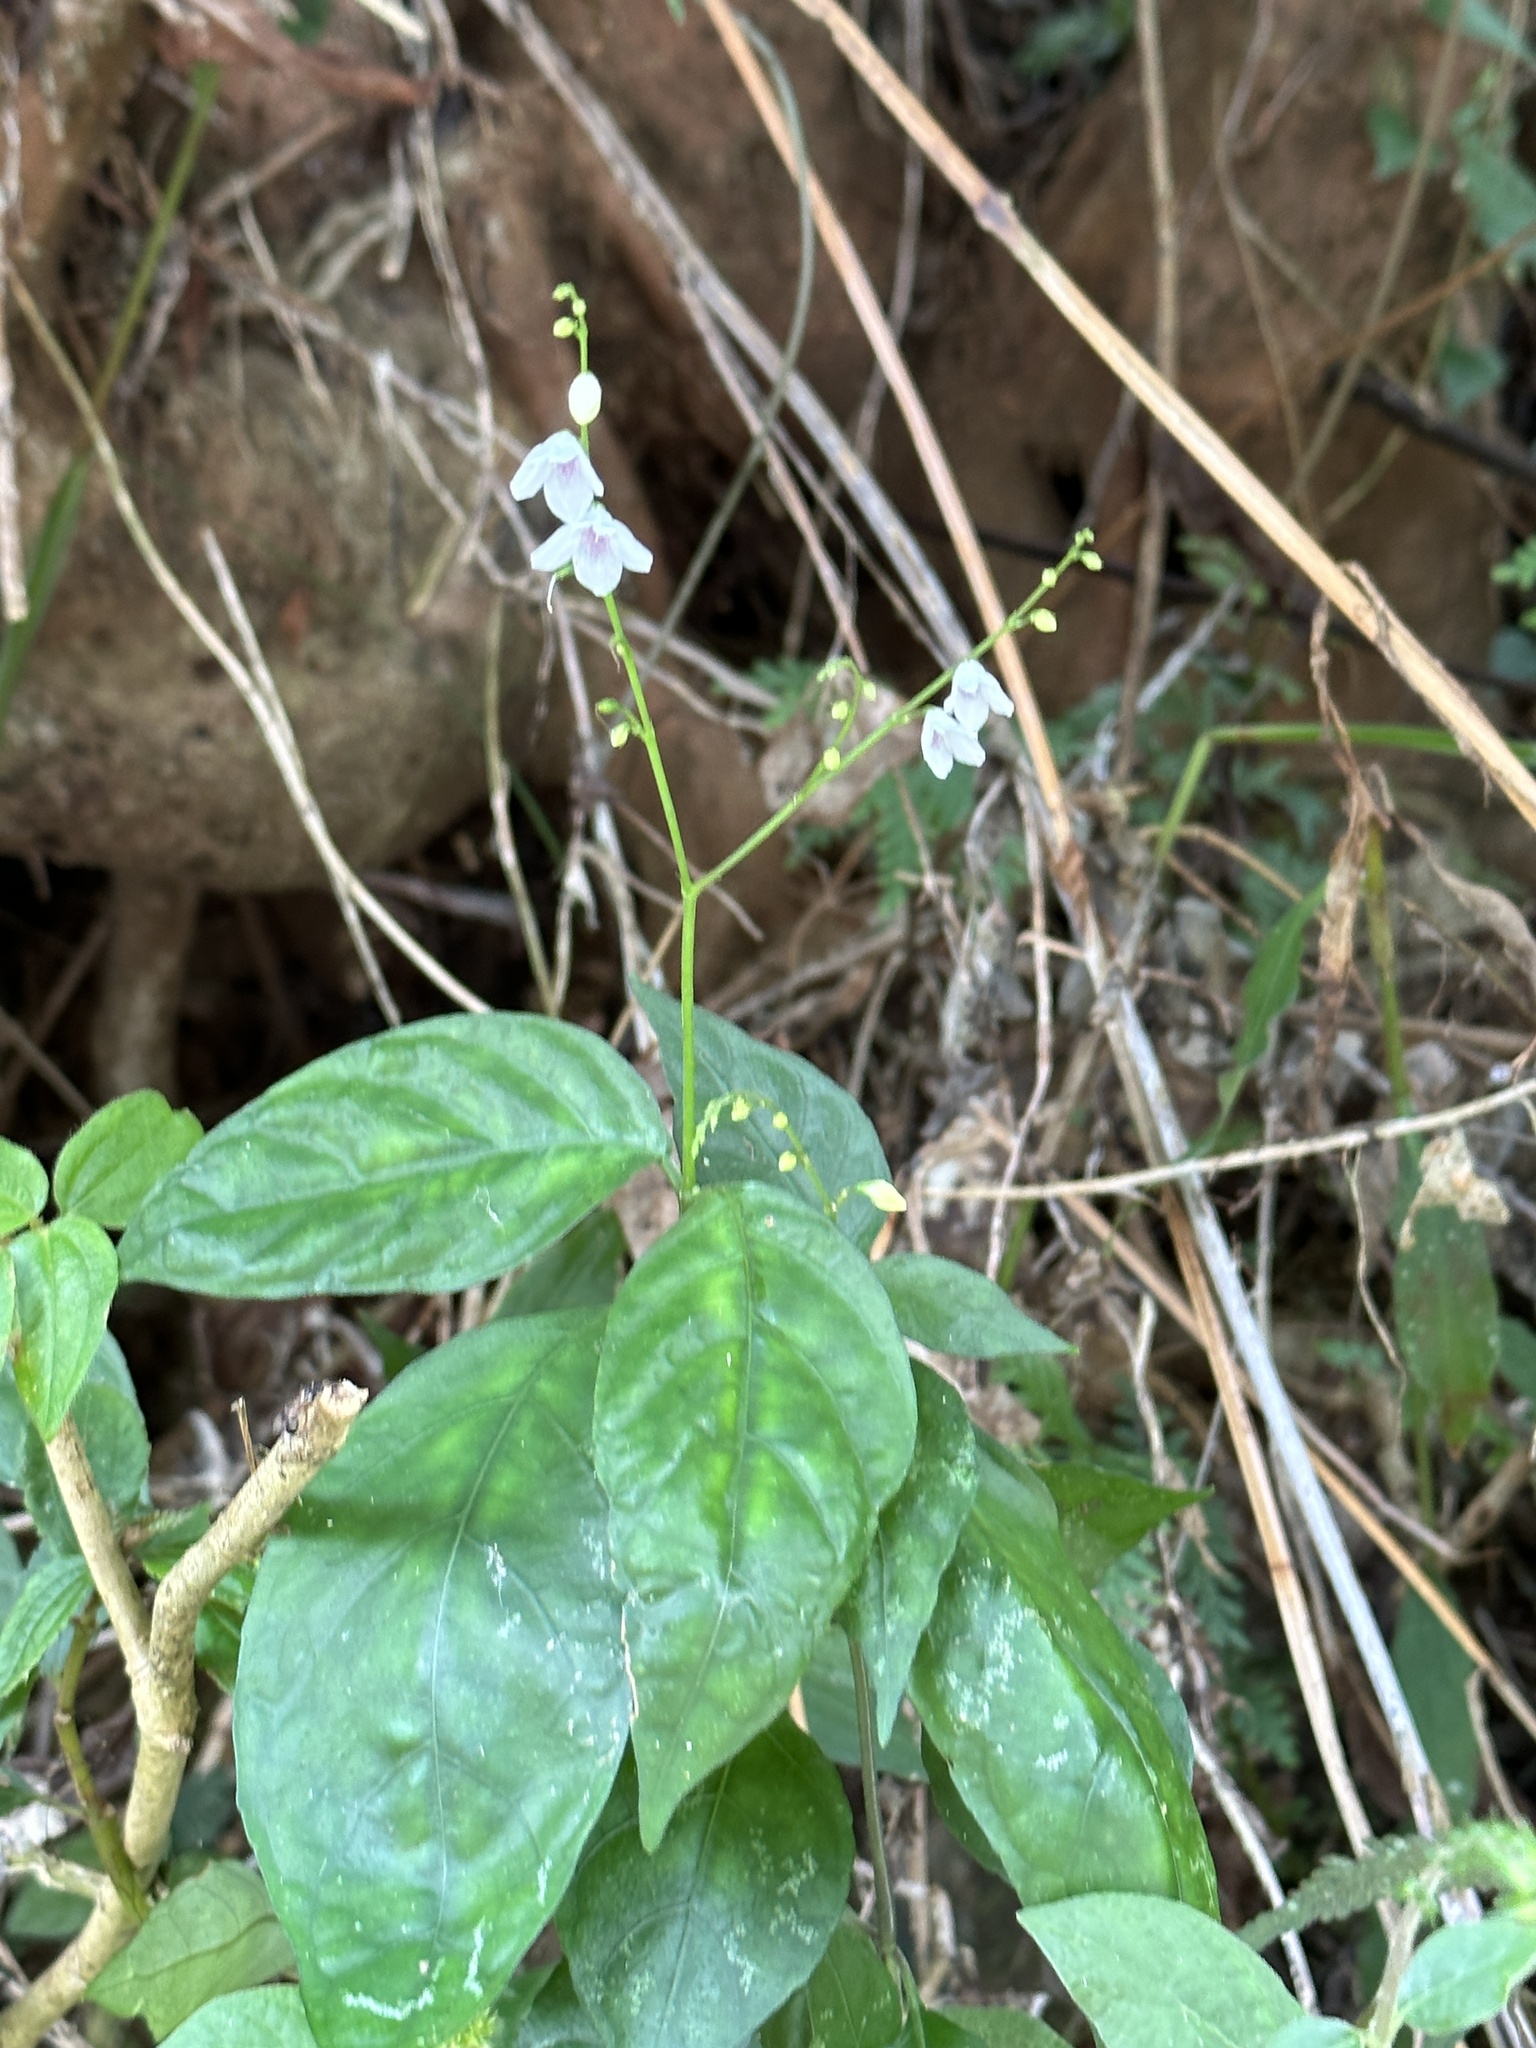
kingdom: Plantae
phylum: Tracheophyta
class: Magnoliopsida
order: Lamiales
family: Acanthaceae
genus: Codonacanthus
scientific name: Codonacanthus pauciflorus
